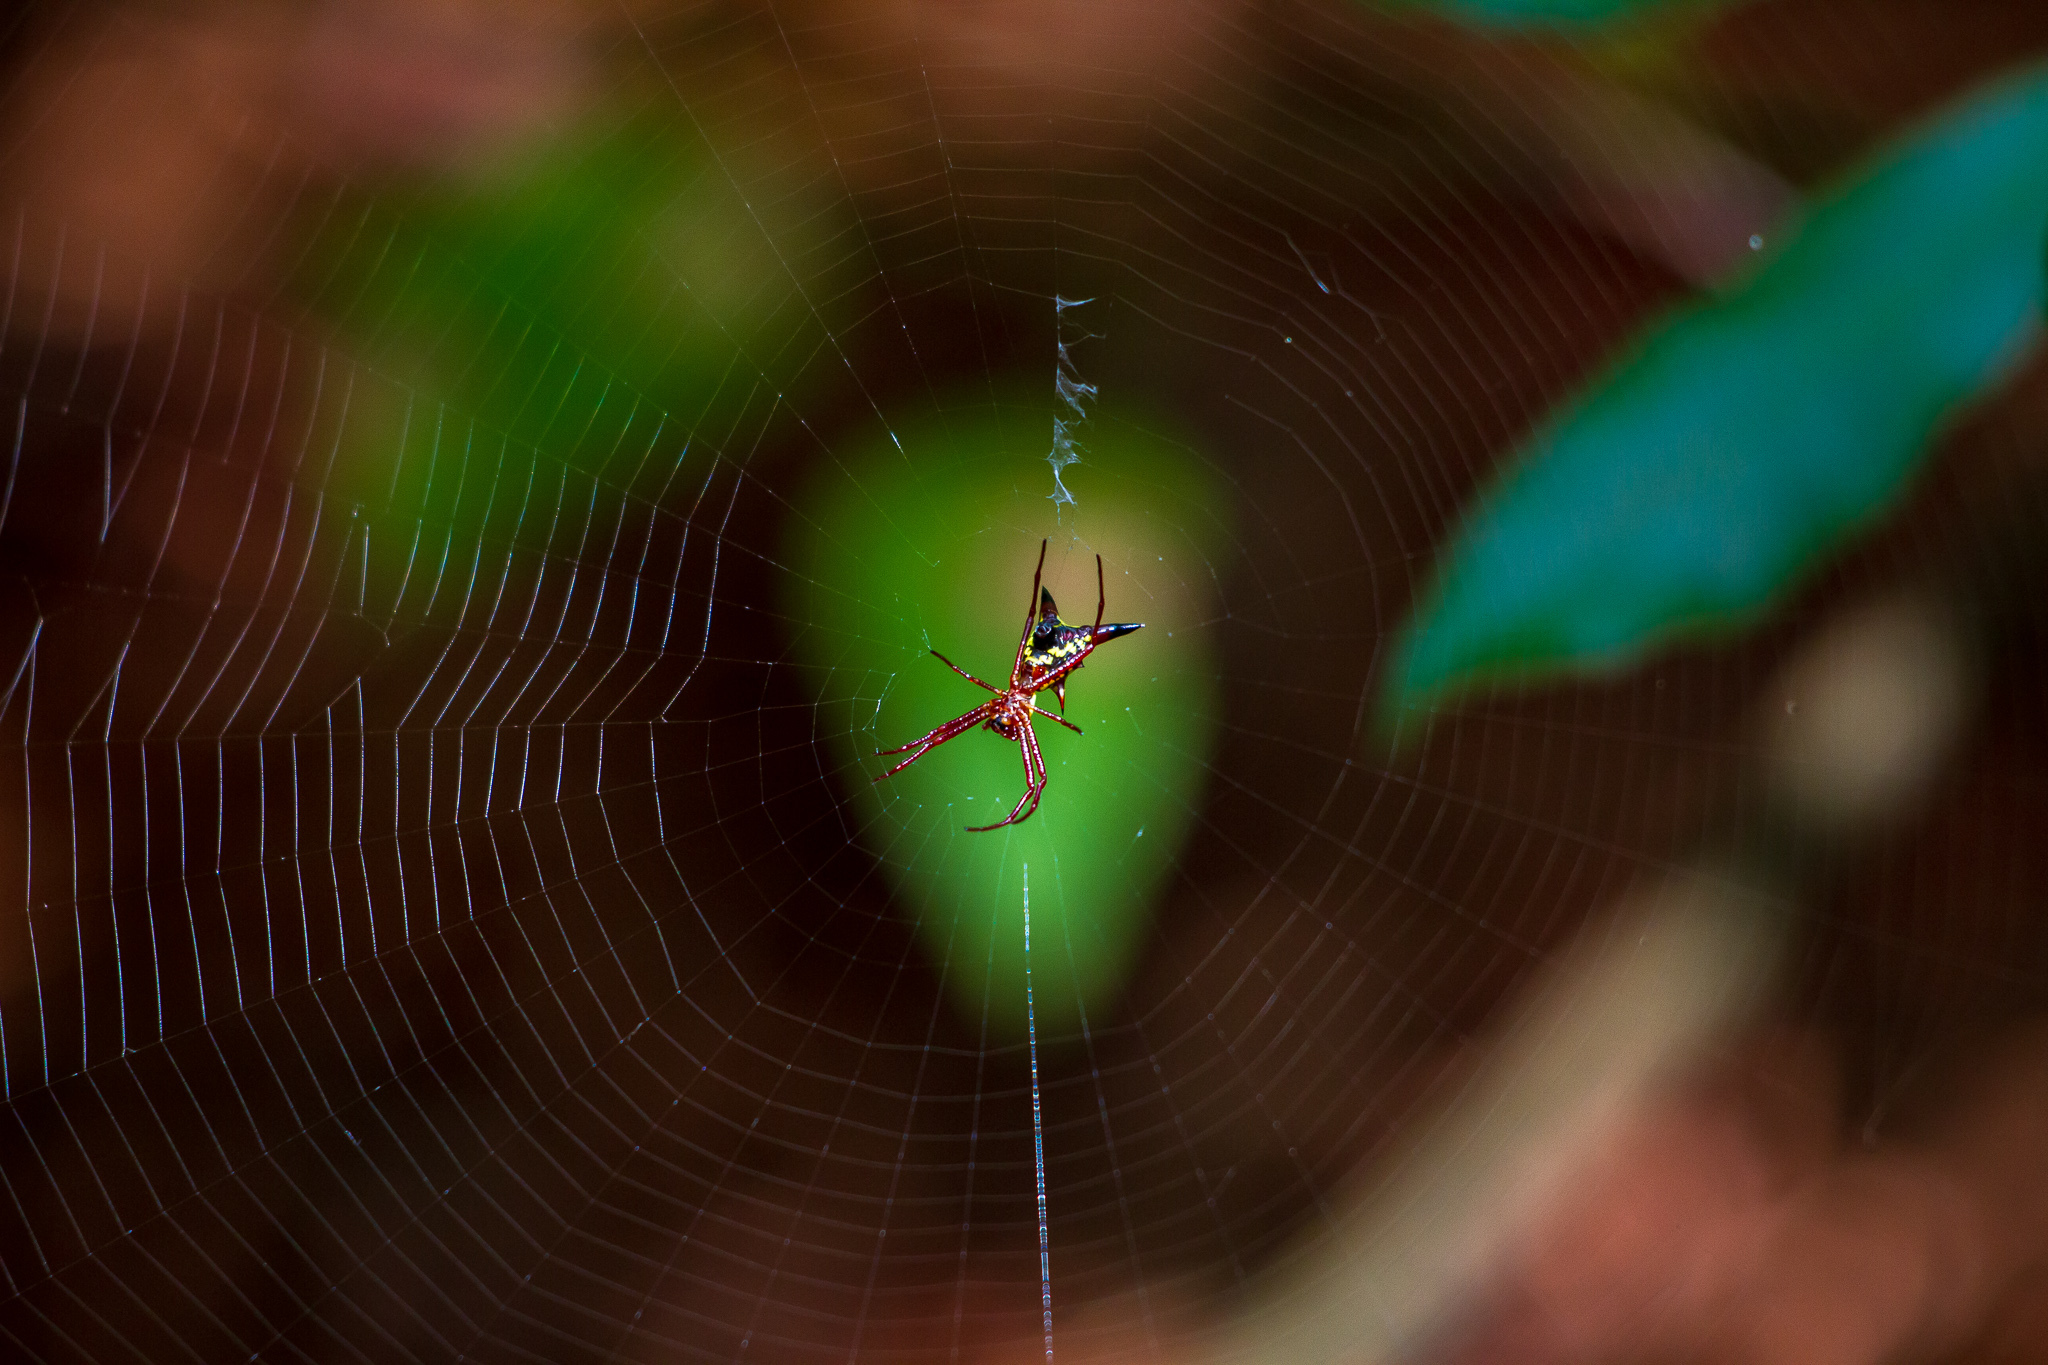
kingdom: Animalia
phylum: Arthropoda
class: Arachnida
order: Araneae
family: Araneidae
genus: Micrathena
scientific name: Micrathena sagittata
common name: Orb weavers
